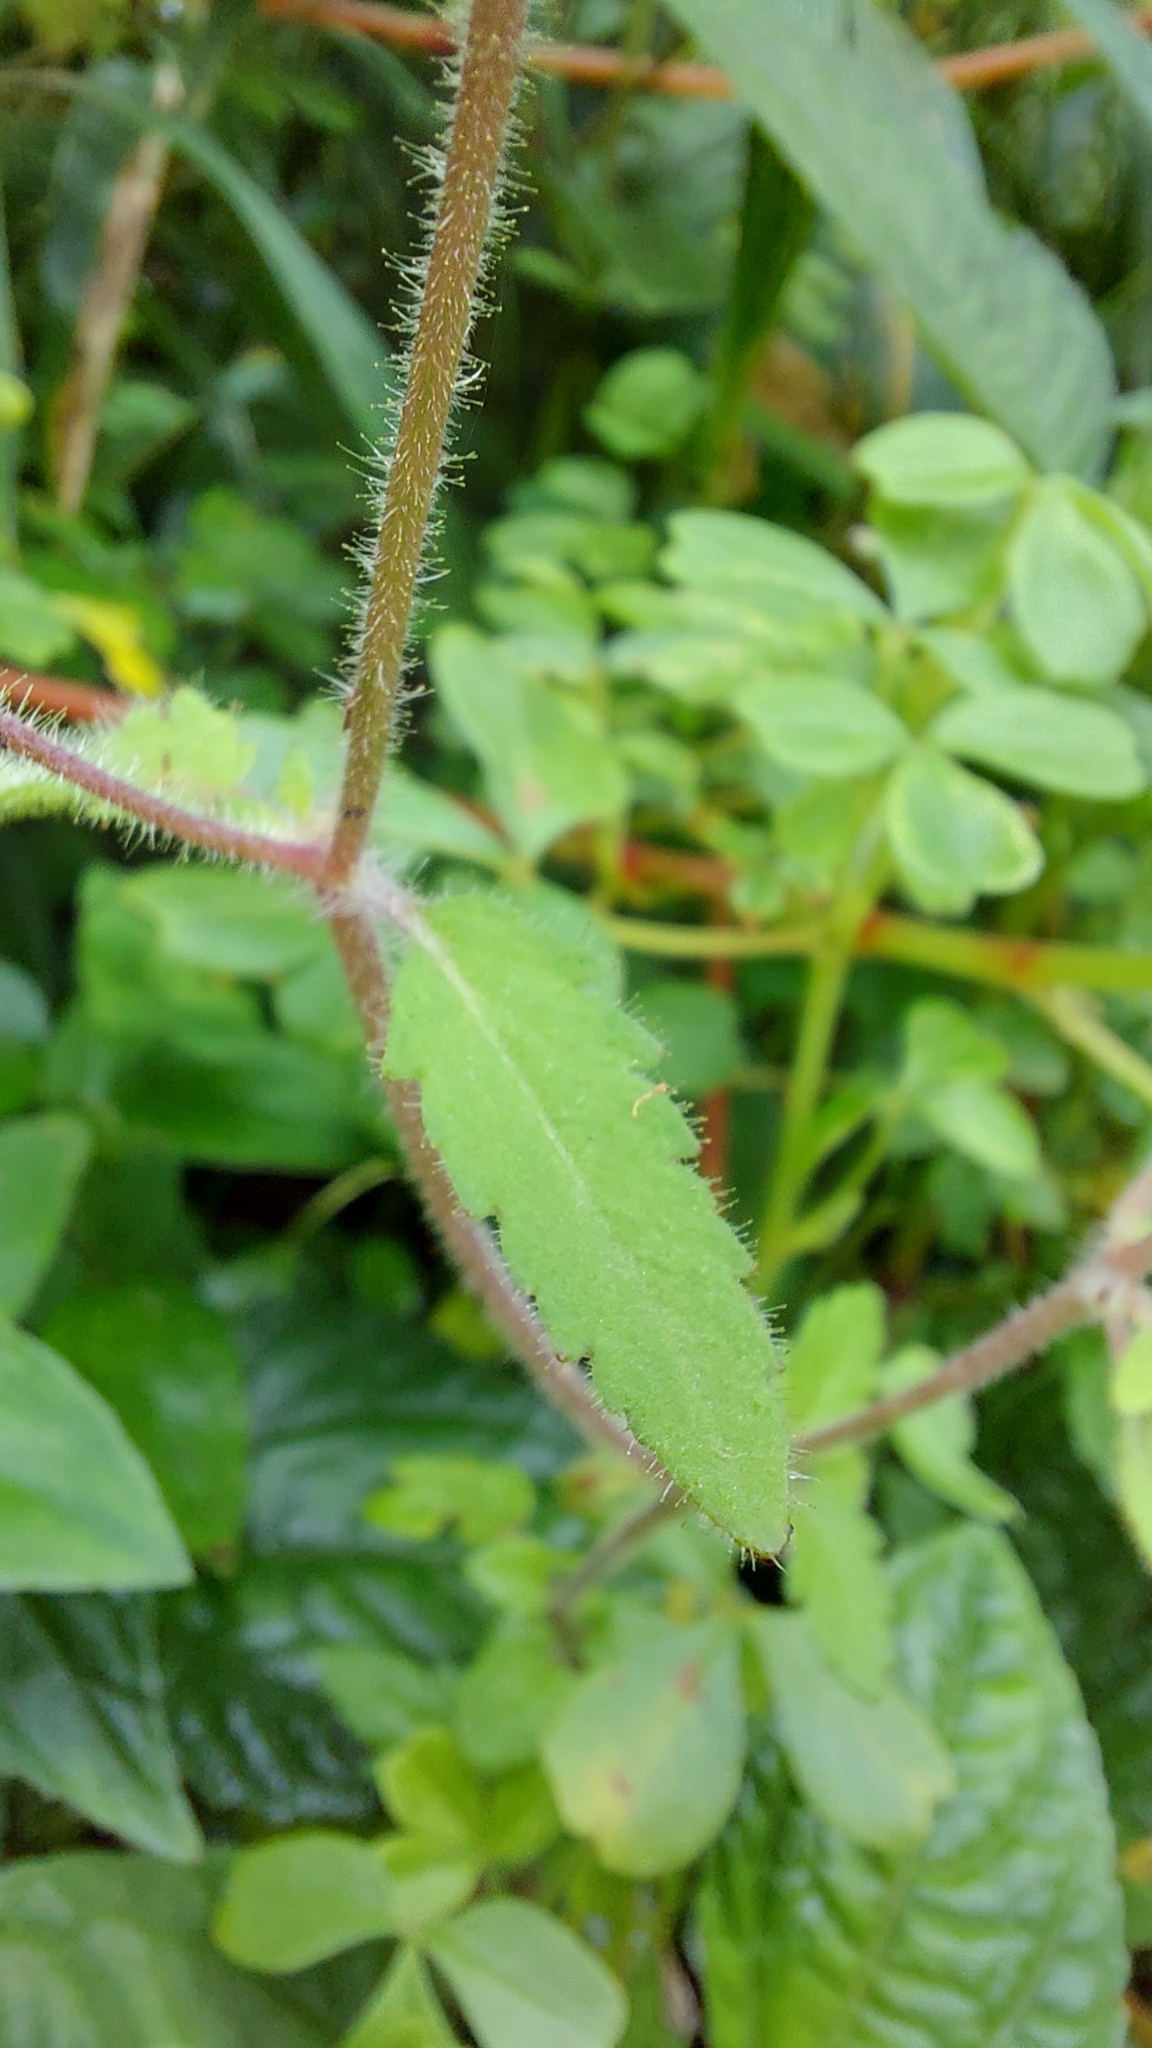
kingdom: Plantae
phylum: Tracheophyta
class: Magnoliopsida
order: Lamiales
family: Calceolariaceae
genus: Calceolaria
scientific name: Calceolaria tripartita
